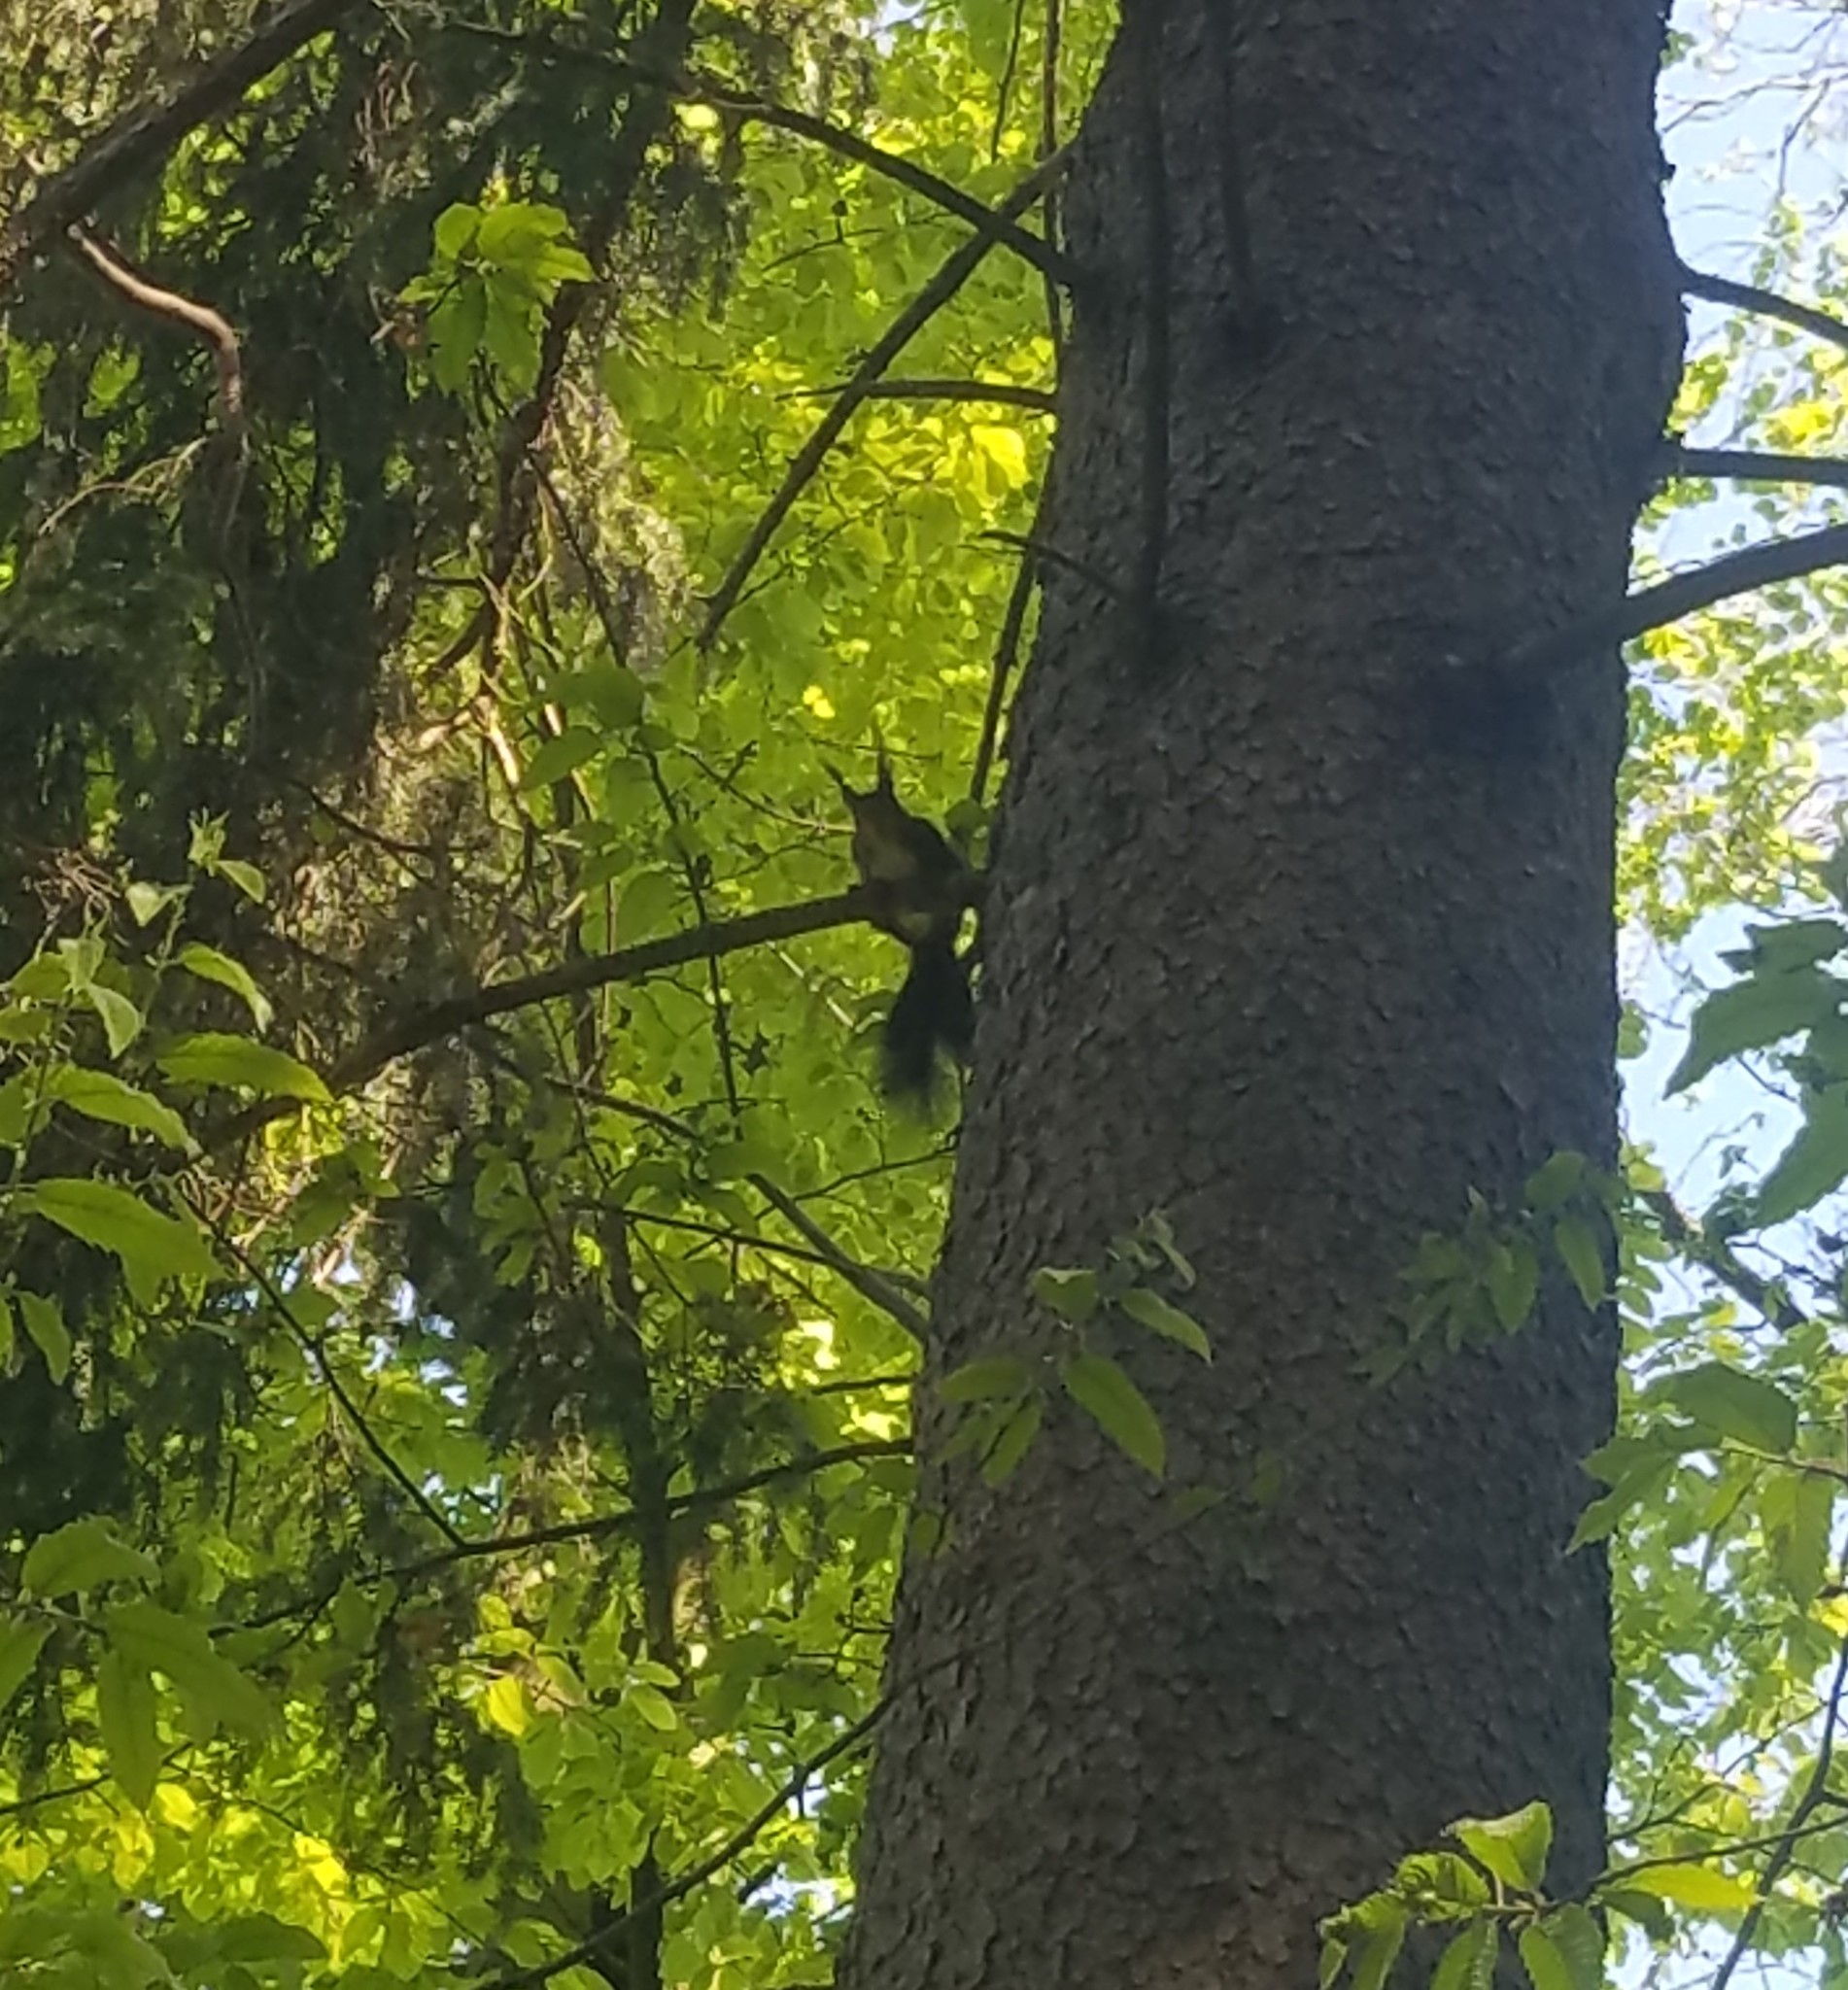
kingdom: Animalia
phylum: Chordata
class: Mammalia
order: Rodentia
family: Sciuridae
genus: Sciurus
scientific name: Sciurus vulgaris
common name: Eurasian red squirrel
